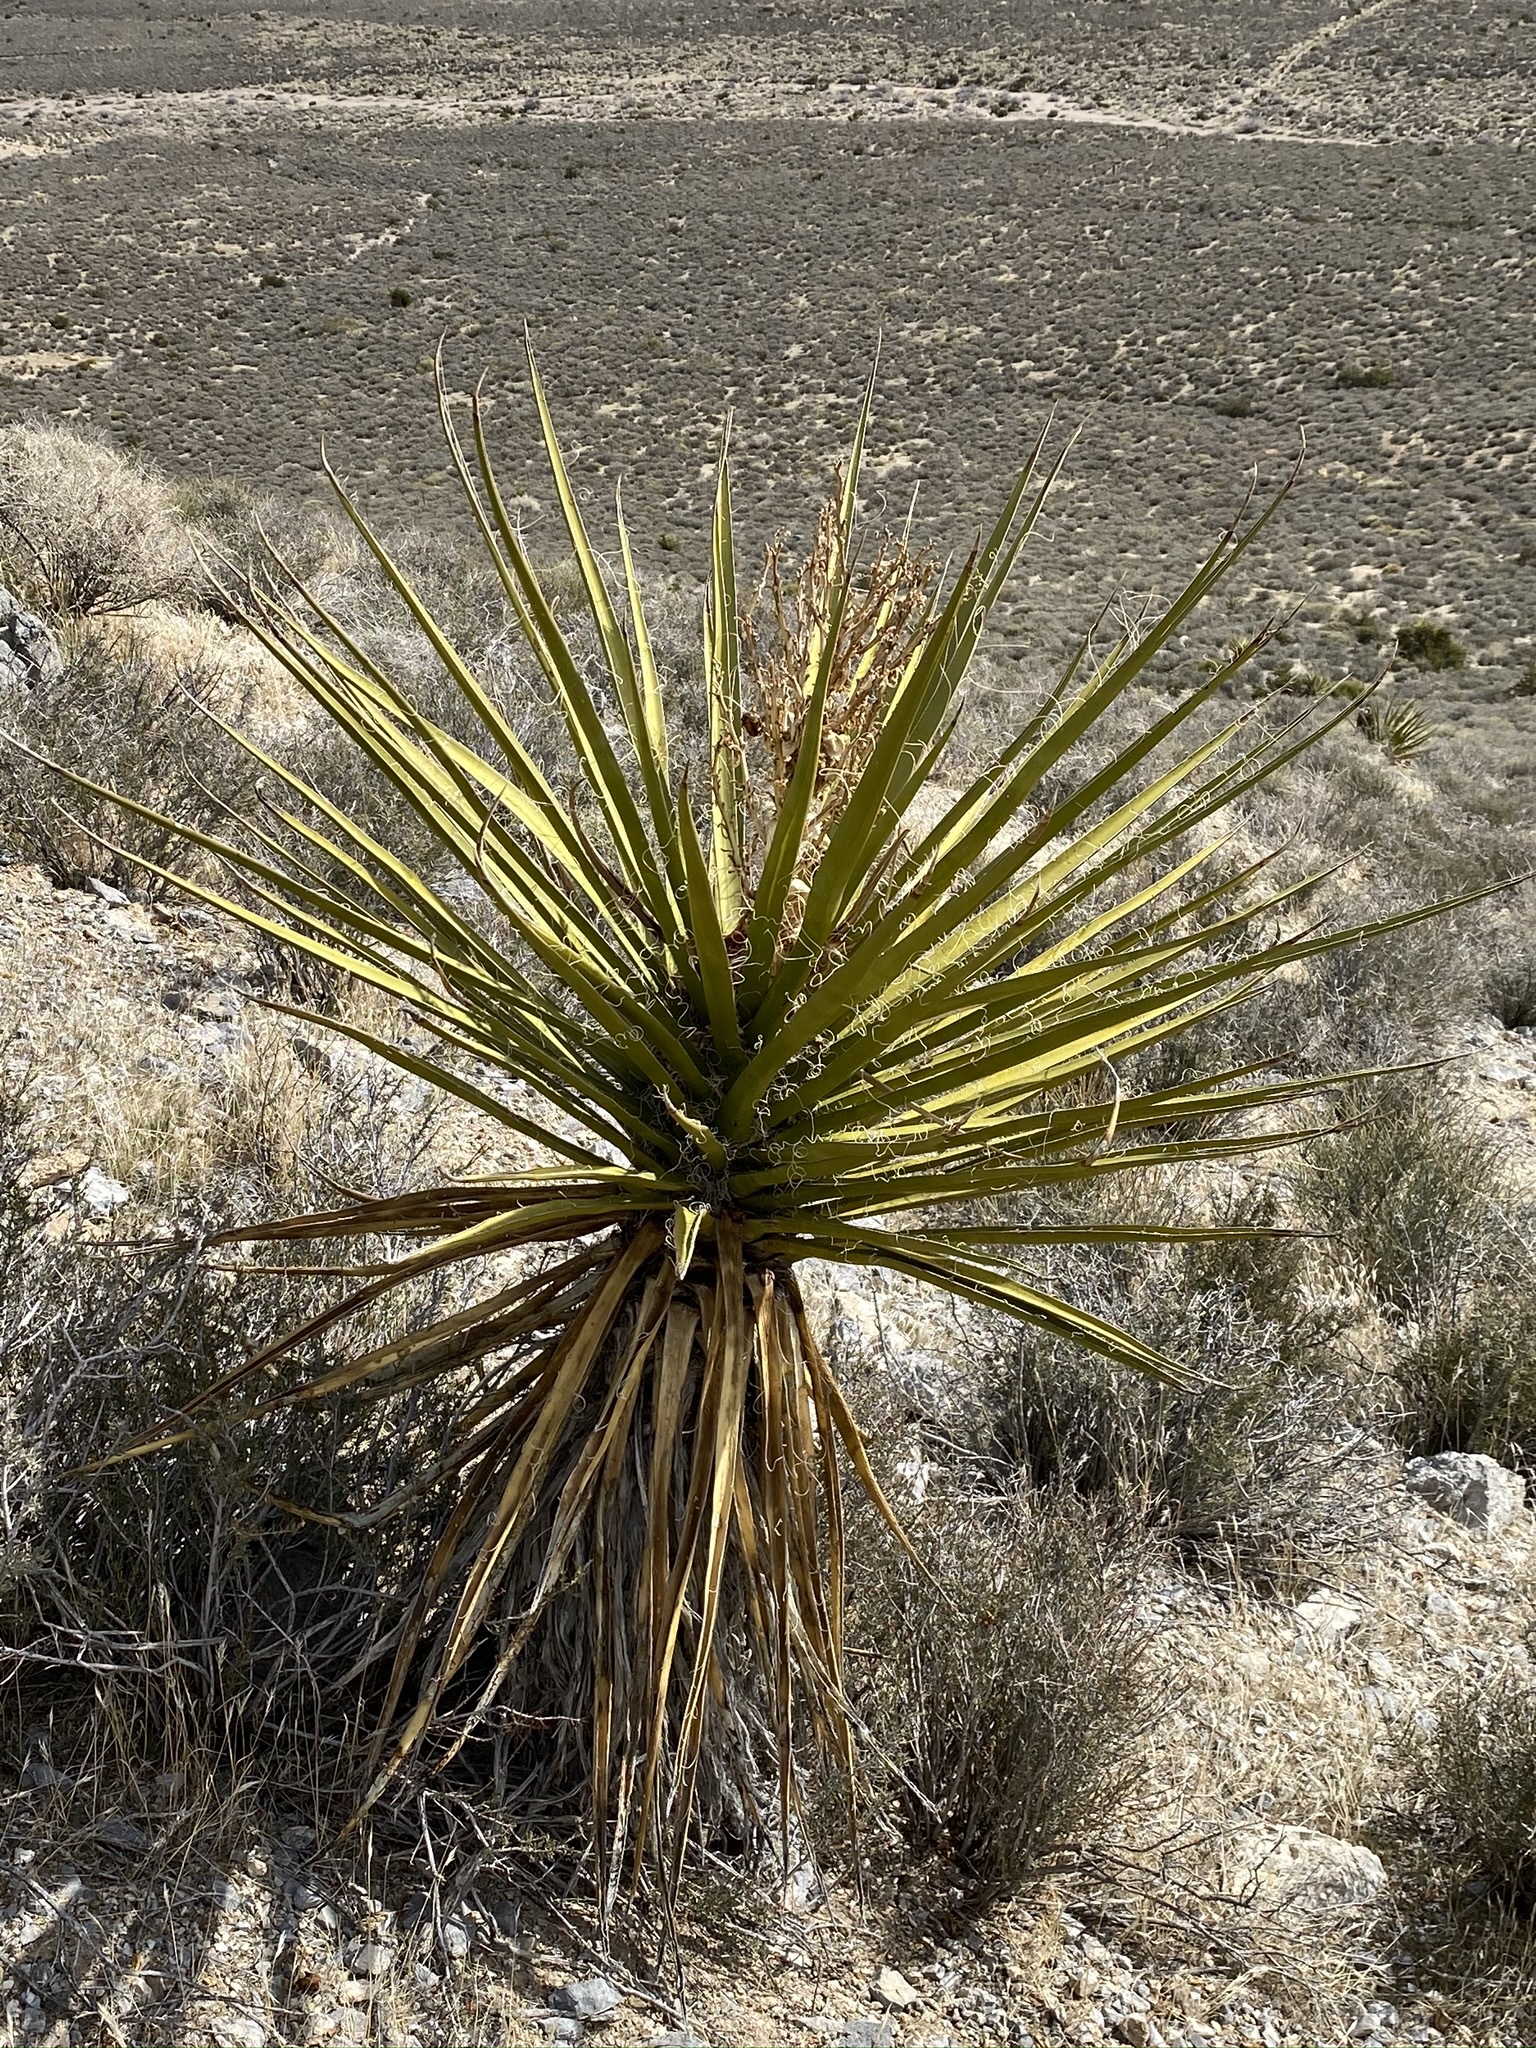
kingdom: Plantae
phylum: Tracheophyta
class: Liliopsida
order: Asparagales
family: Asparagaceae
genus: Yucca
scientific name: Yucca schidigera
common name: Mojave yucca
